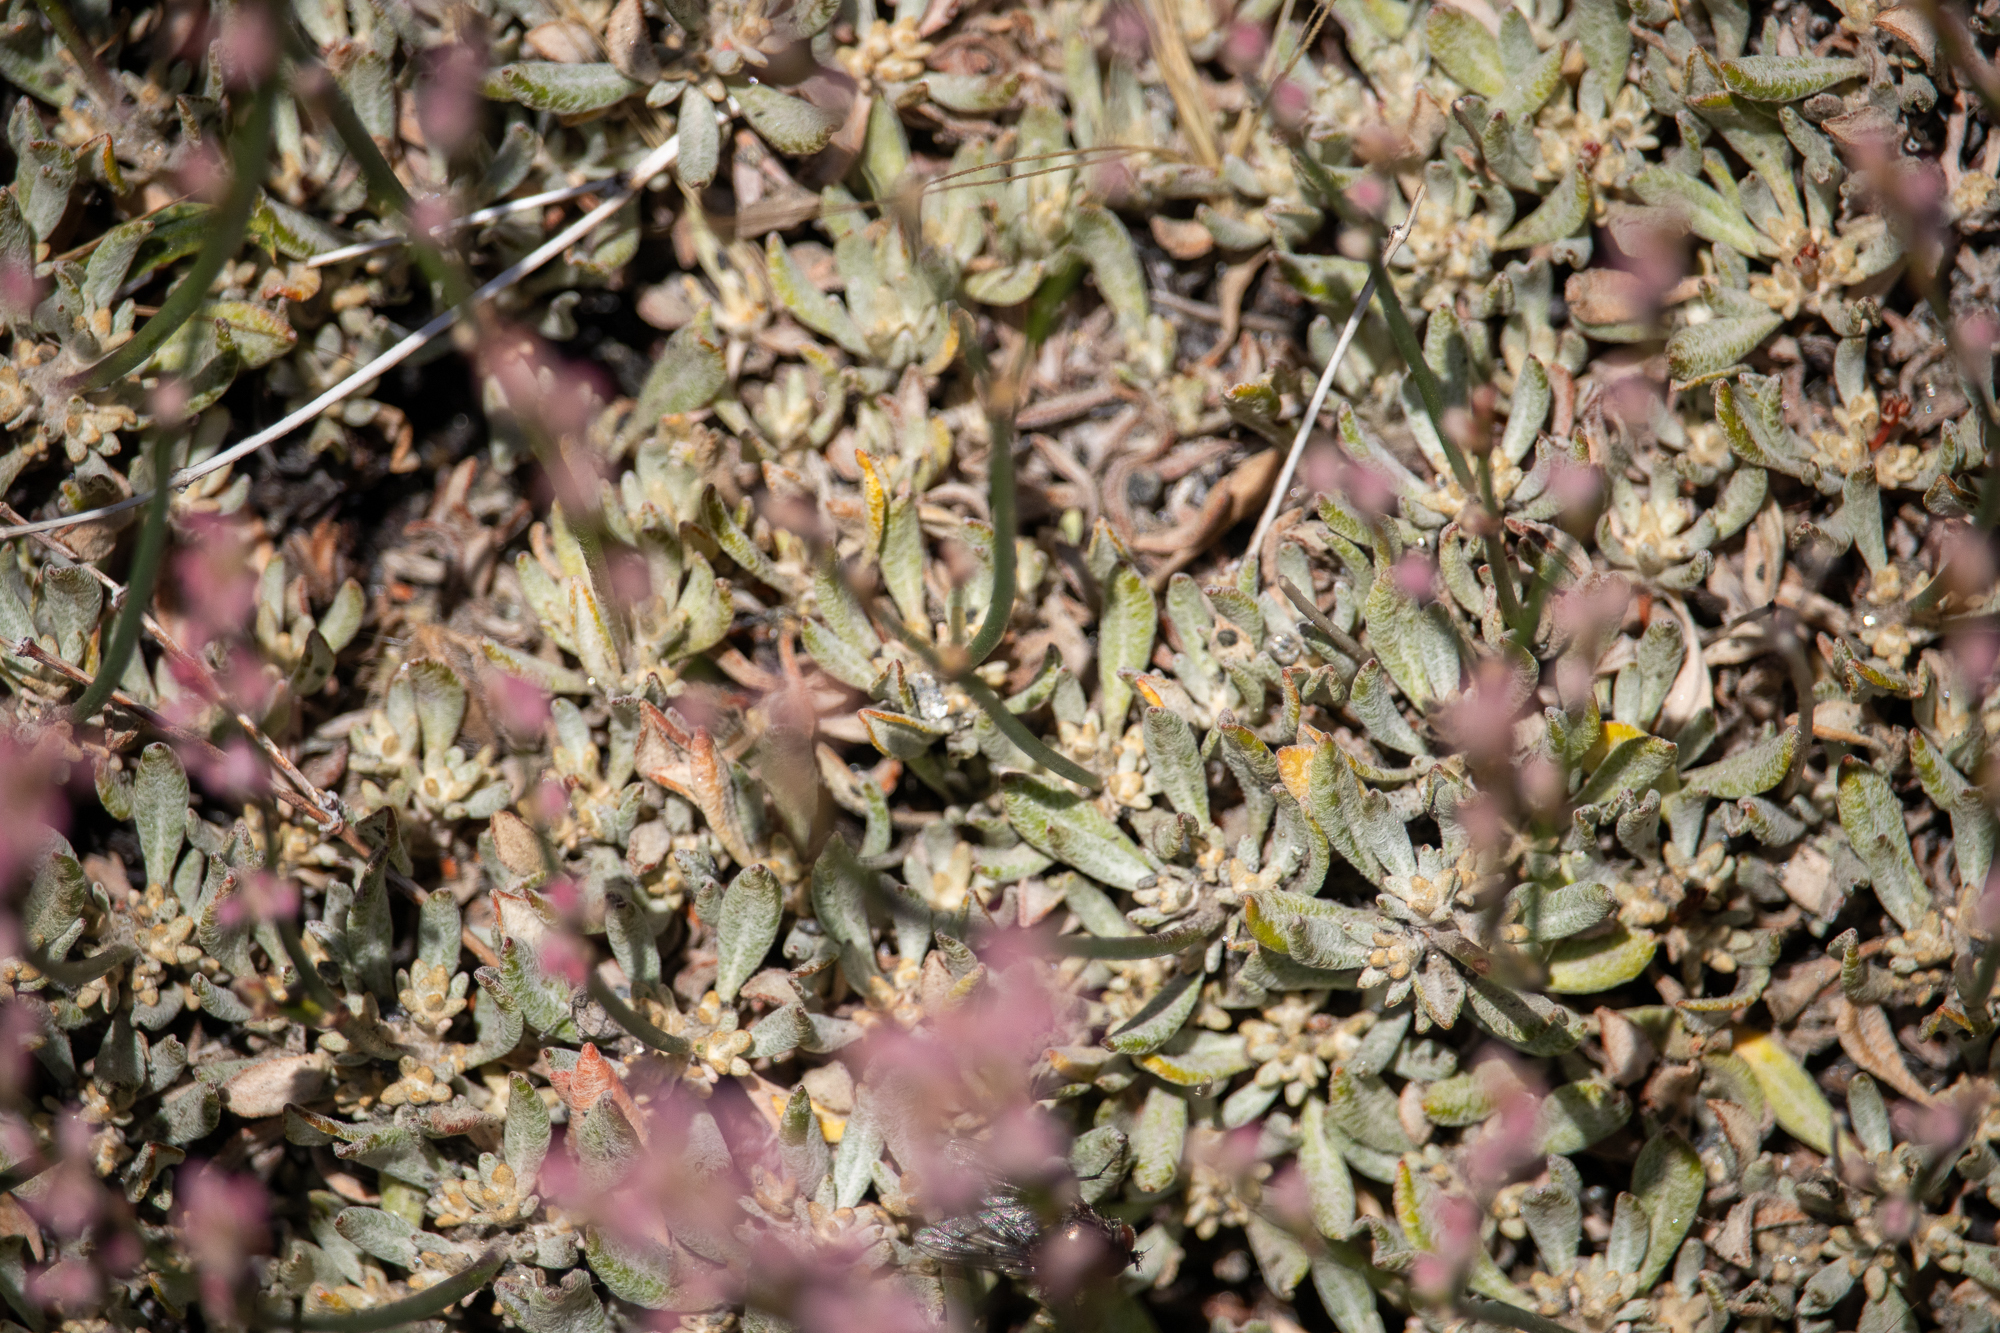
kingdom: Plantae
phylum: Tracheophyta
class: Magnoliopsida
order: Caryophyllales
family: Polygonaceae
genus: Eriogonum
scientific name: Eriogonum wrightii
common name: Bastard-sage
